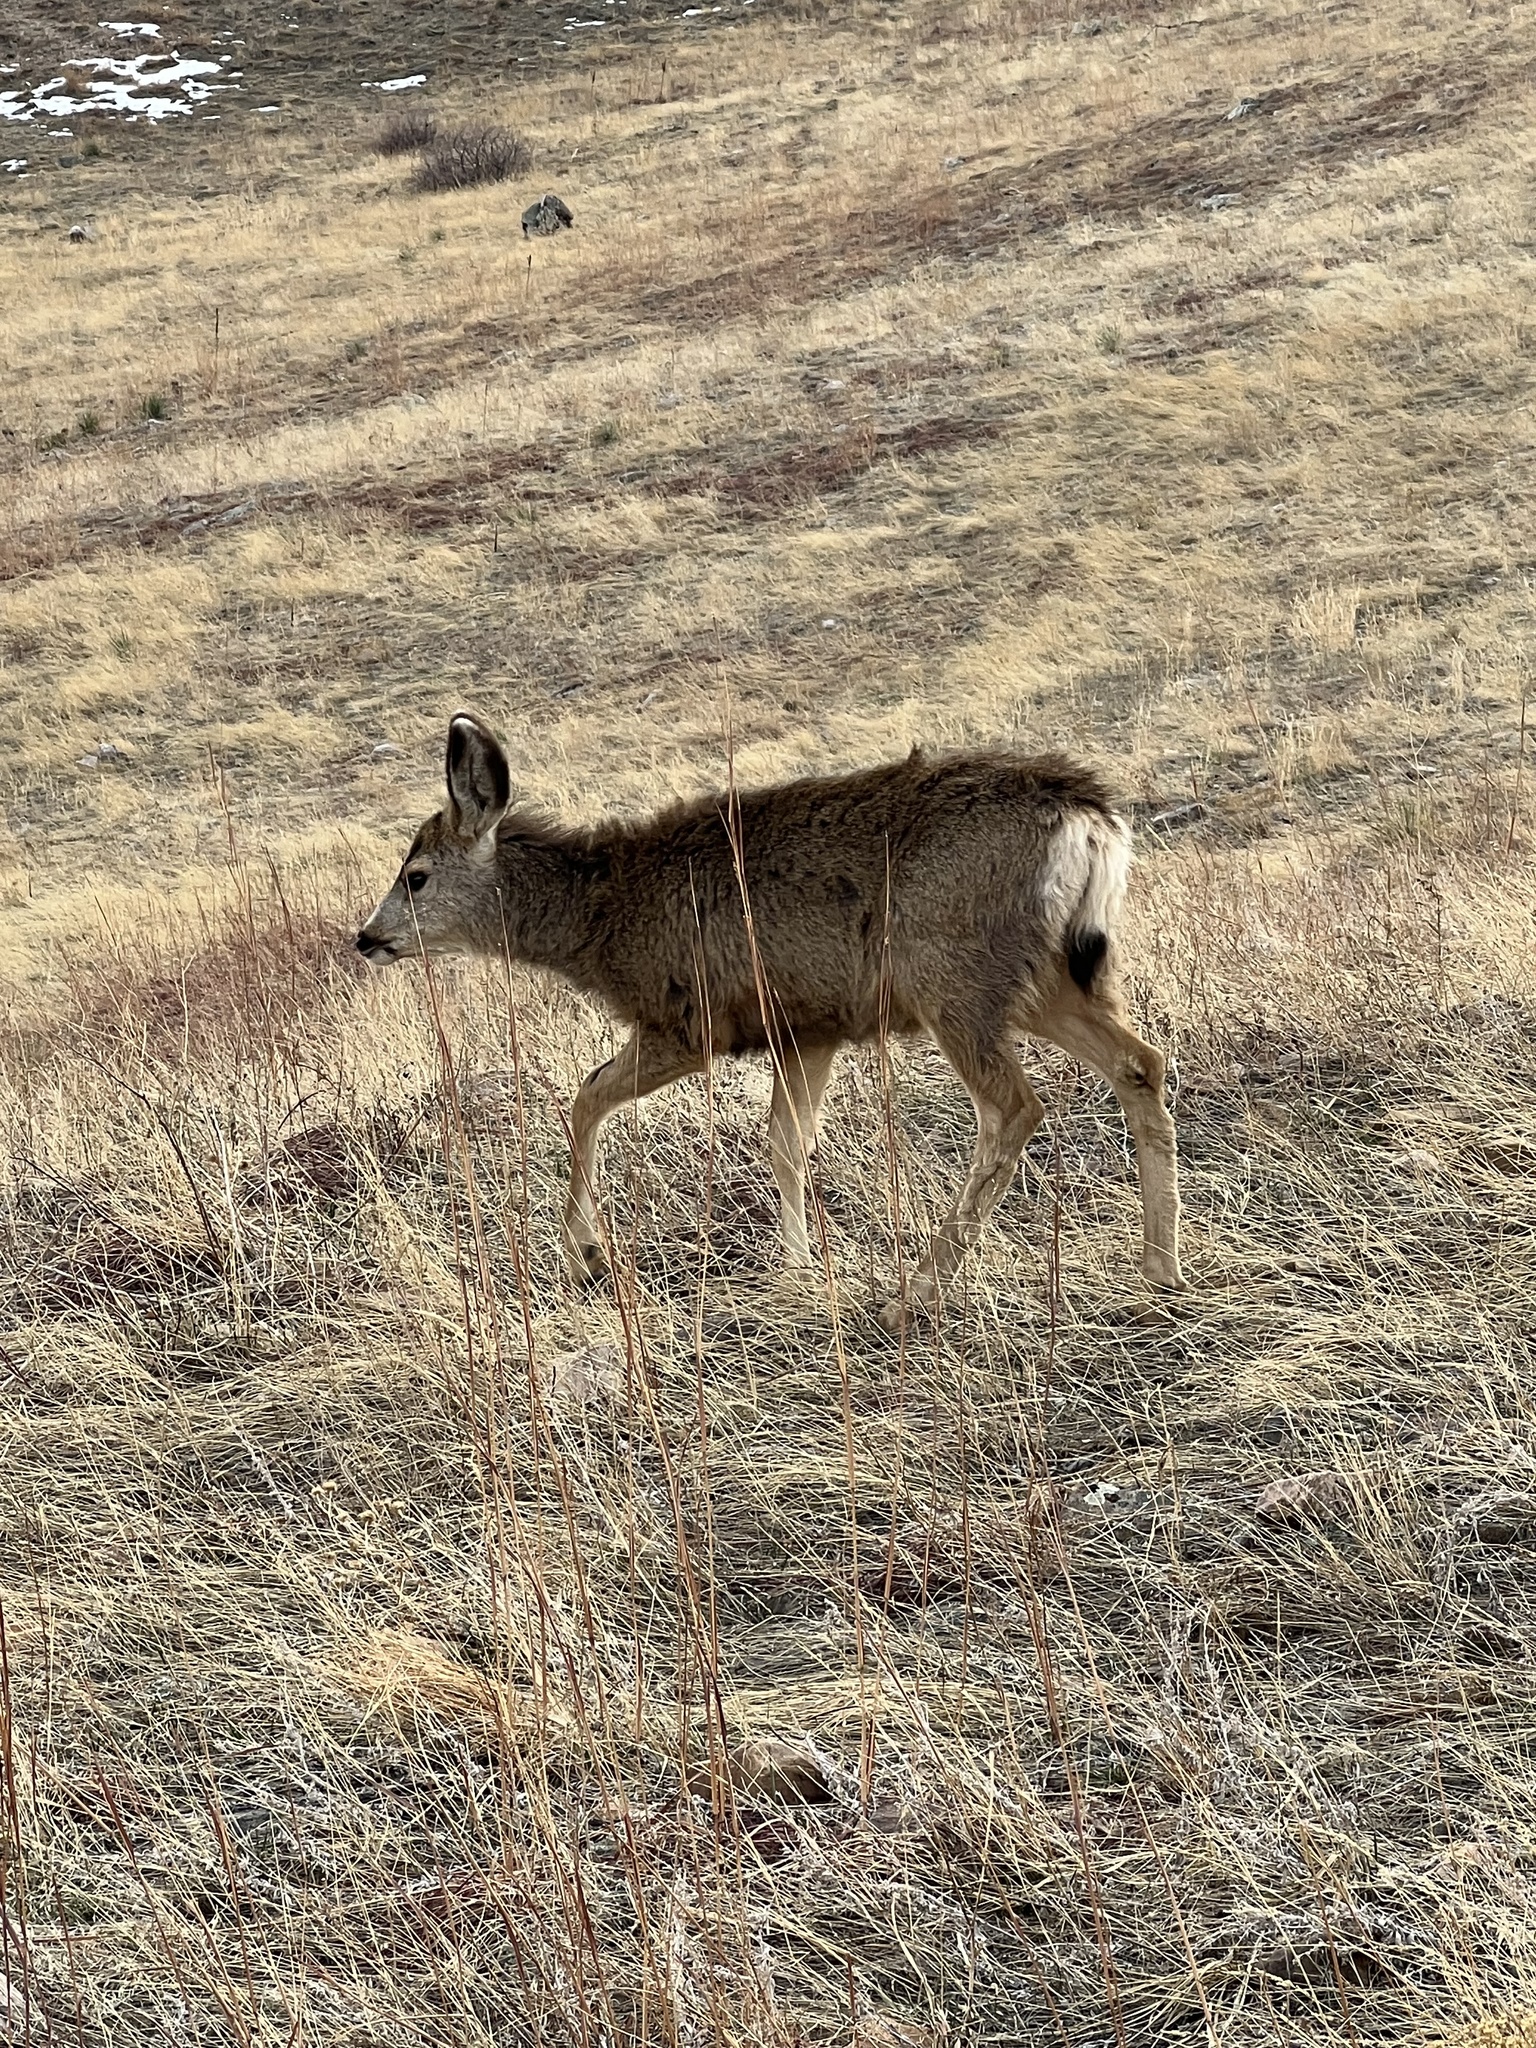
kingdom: Animalia
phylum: Chordata
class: Mammalia
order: Artiodactyla
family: Cervidae
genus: Odocoileus
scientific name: Odocoileus hemionus
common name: Mule deer
